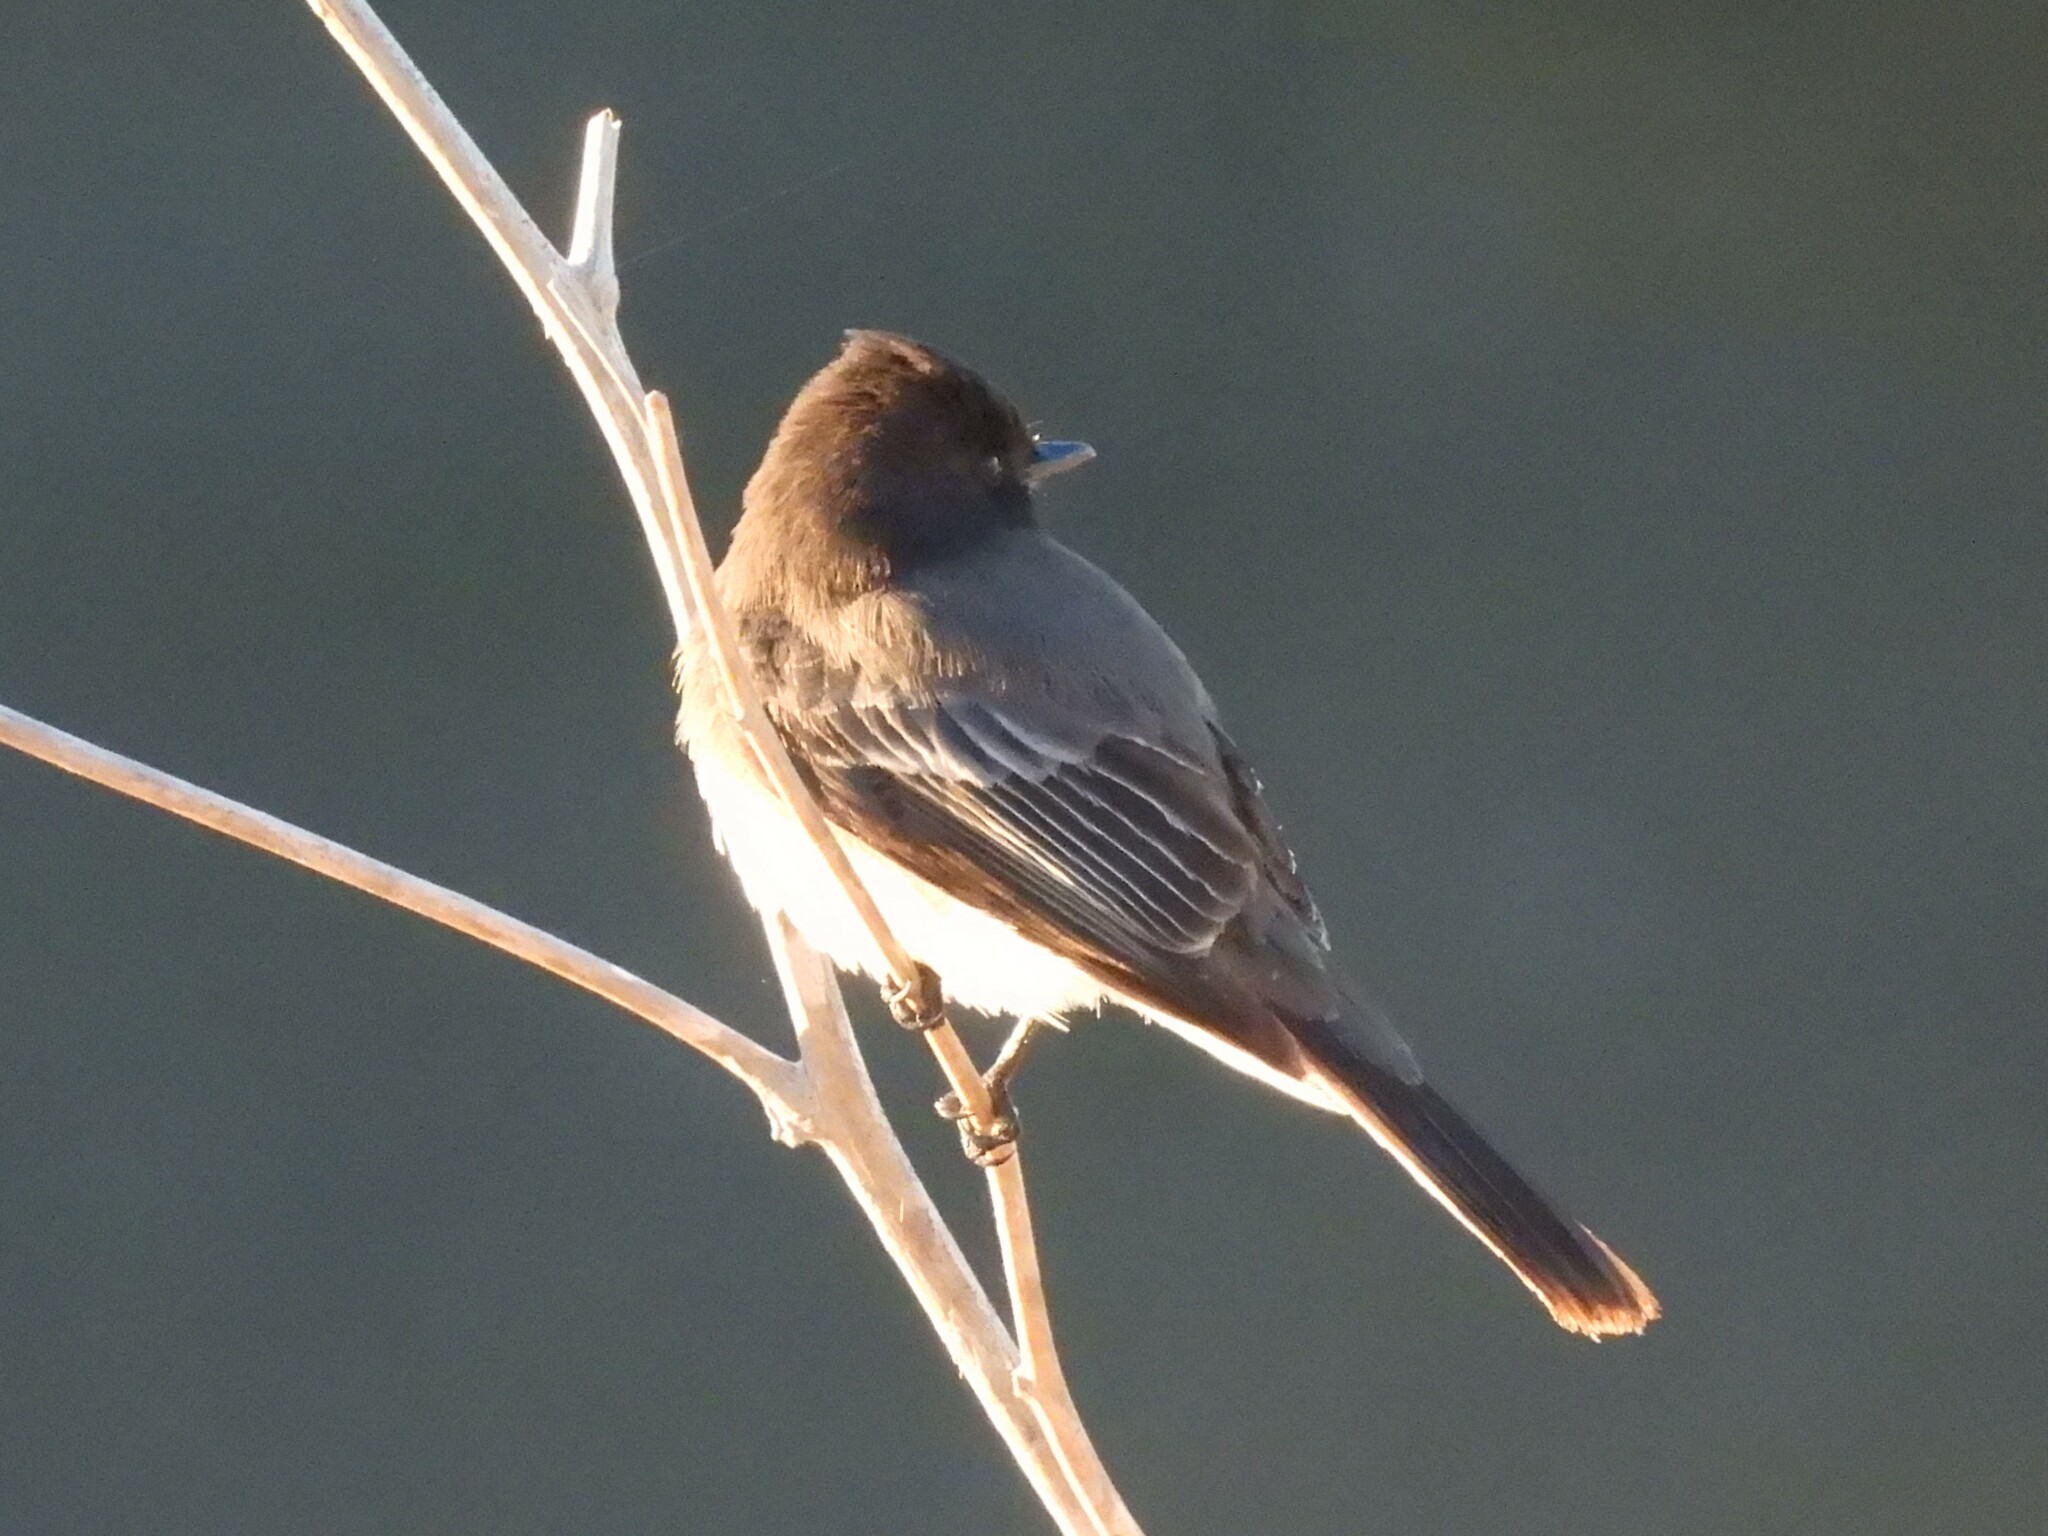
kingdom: Animalia
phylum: Chordata
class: Aves
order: Passeriformes
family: Tyrannidae
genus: Sayornis
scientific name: Sayornis nigricans
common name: Black phoebe
